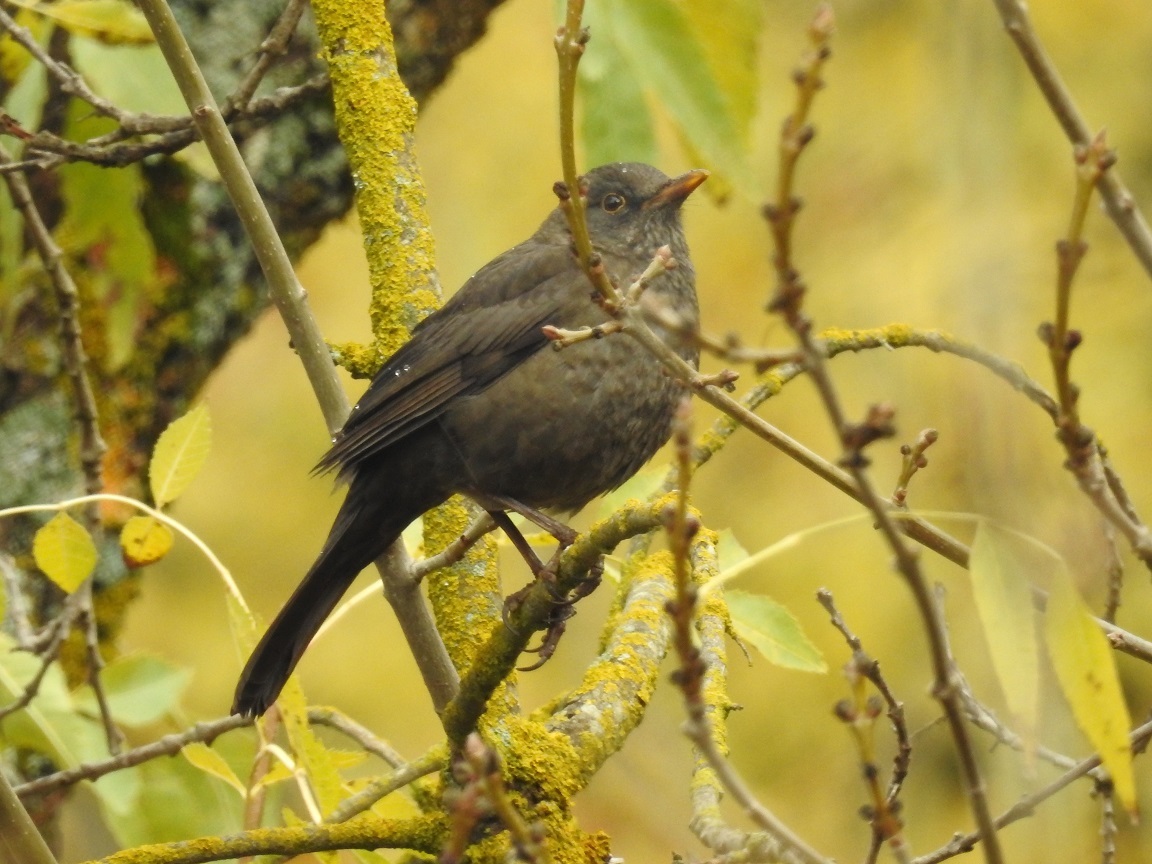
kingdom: Animalia
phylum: Chordata
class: Aves
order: Passeriformes
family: Turdidae
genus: Turdus
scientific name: Turdus merula
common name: Common blackbird
